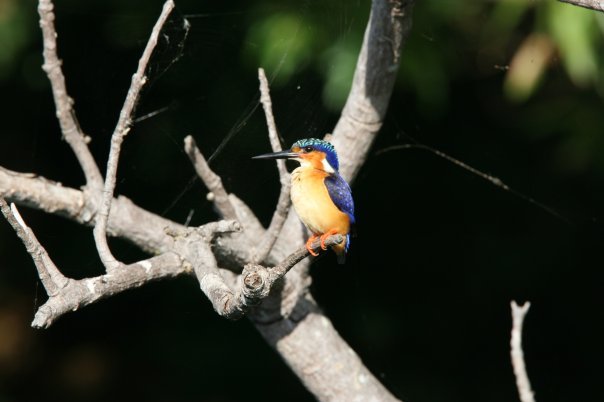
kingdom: Animalia
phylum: Chordata
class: Aves
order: Coraciiformes
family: Alcedinidae
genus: Corythornis
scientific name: Corythornis vintsioides
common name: Malagasy kingfisher
